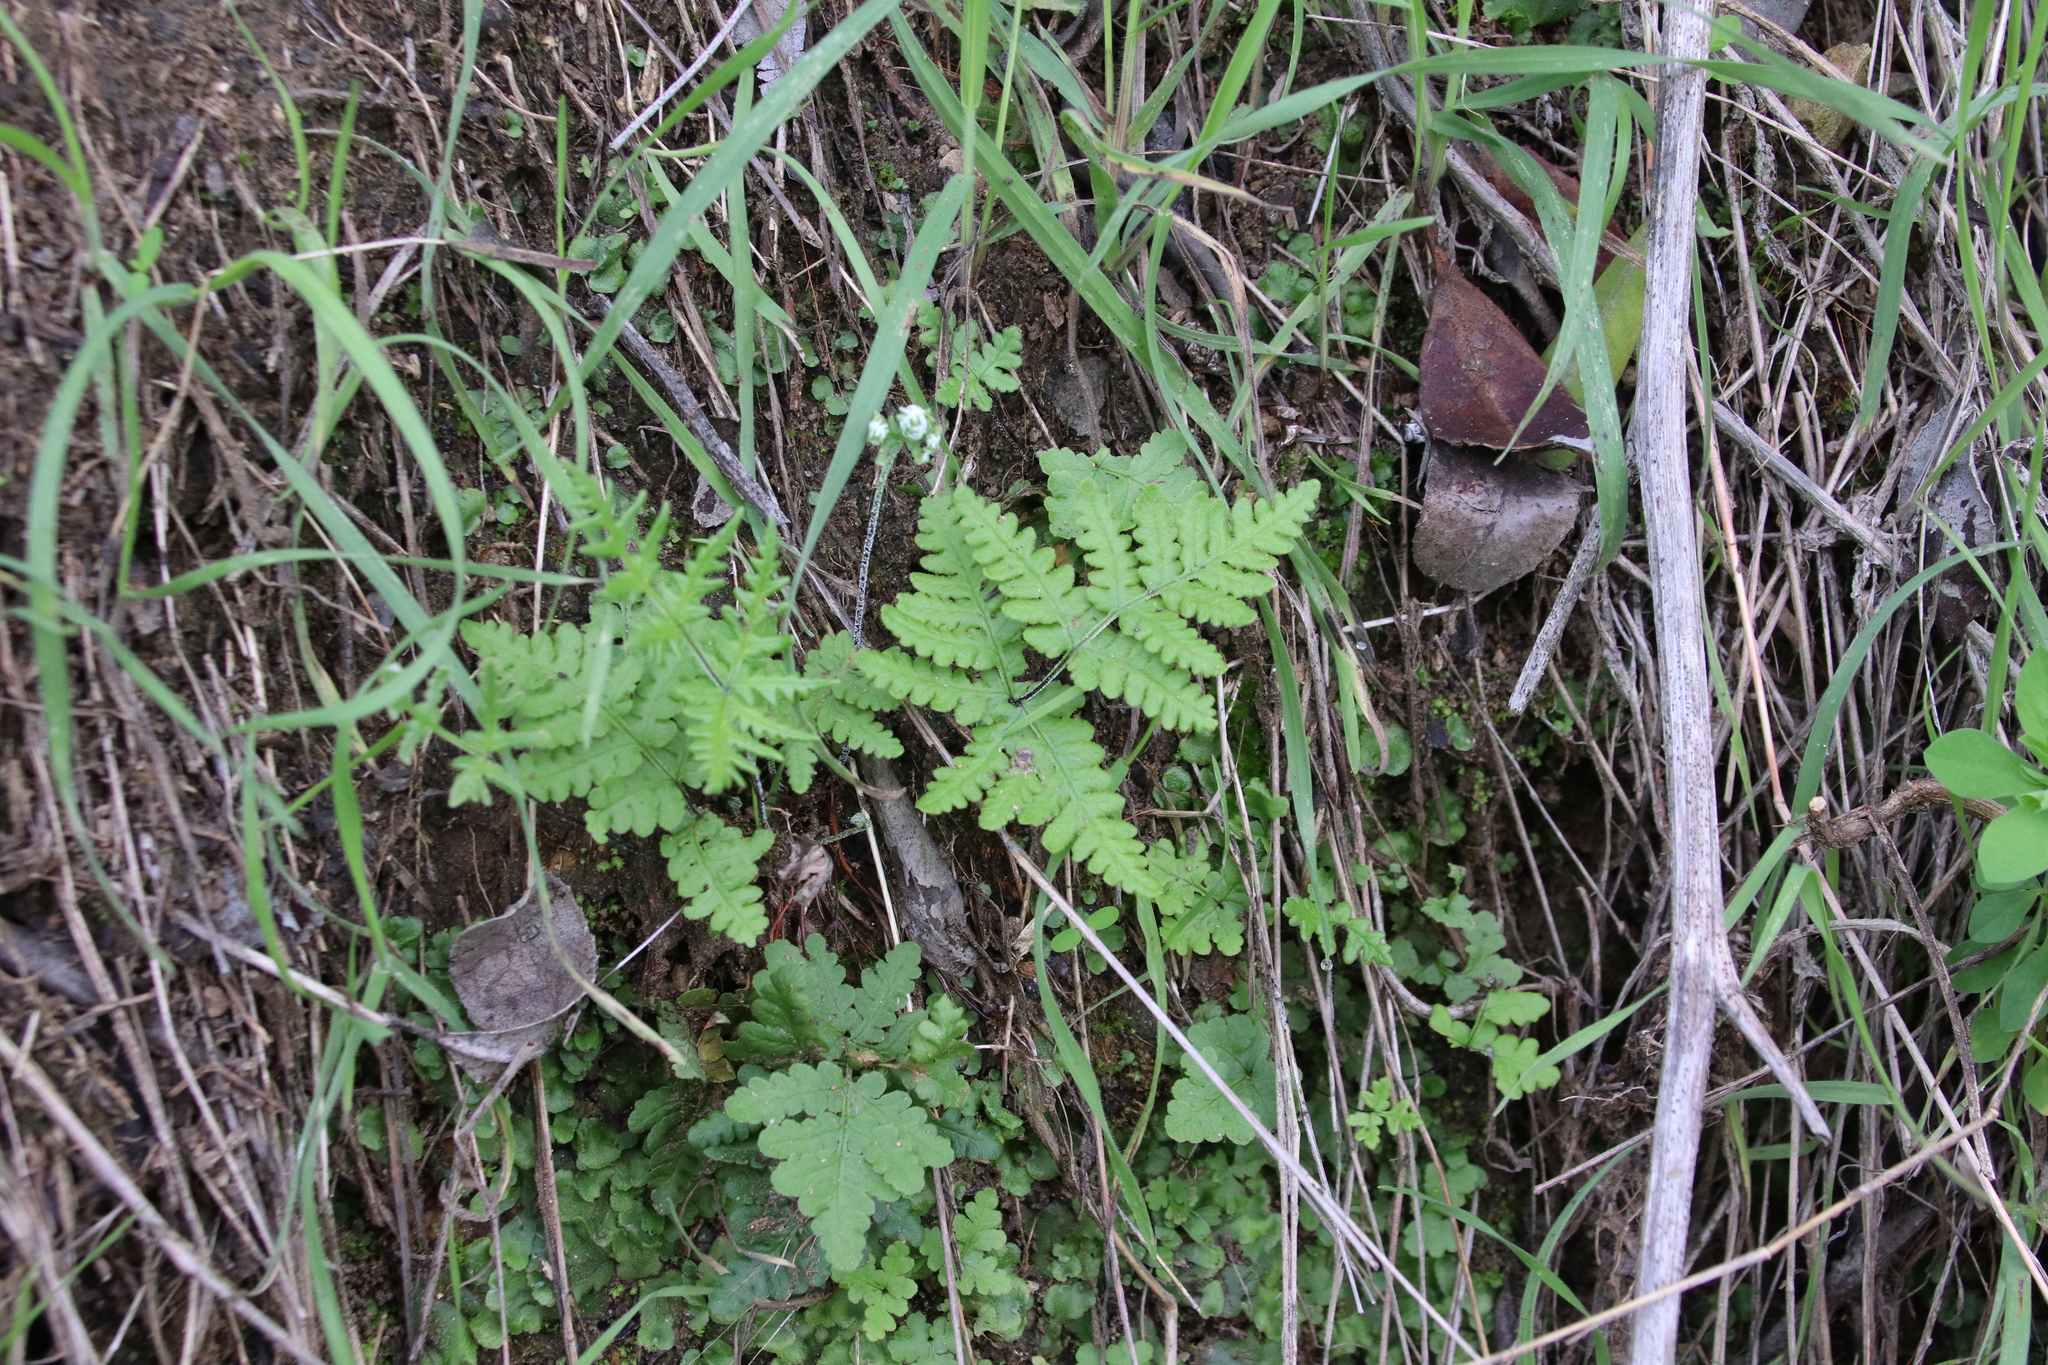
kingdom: Plantae
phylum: Tracheophyta
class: Polypodiopsida
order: Polypodiales
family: Pteridaceae
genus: Pentagramma
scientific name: Pentagramma glanduloviscida
